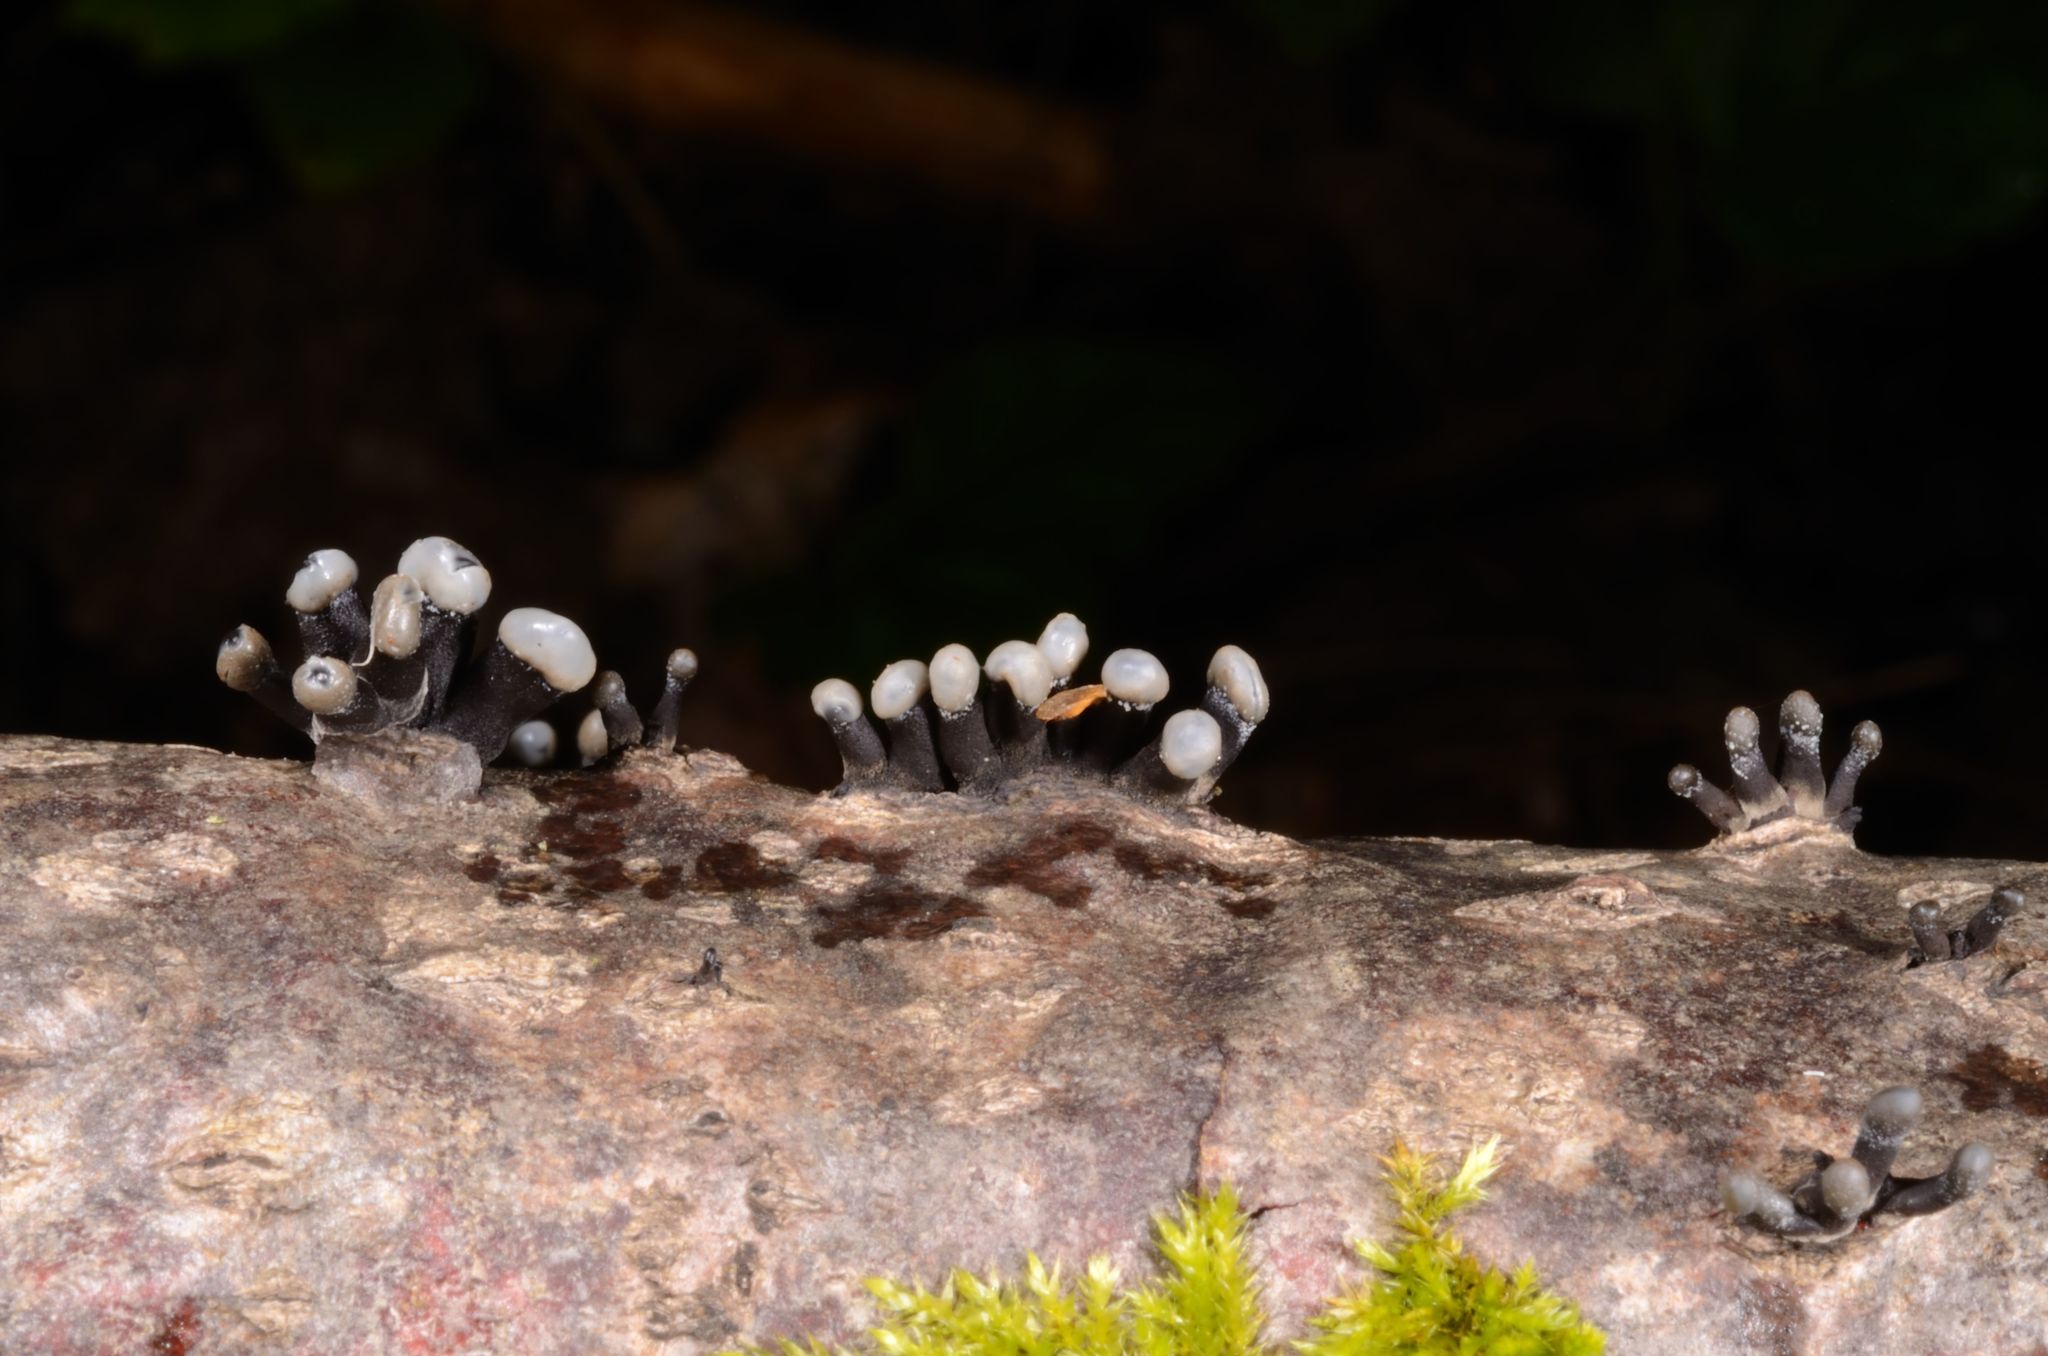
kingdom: Fungi
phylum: Ascomycota
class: Leotiomycetes
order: Helotiales
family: Bulgariaceae
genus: Holwaya
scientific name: Holwaya mucida
